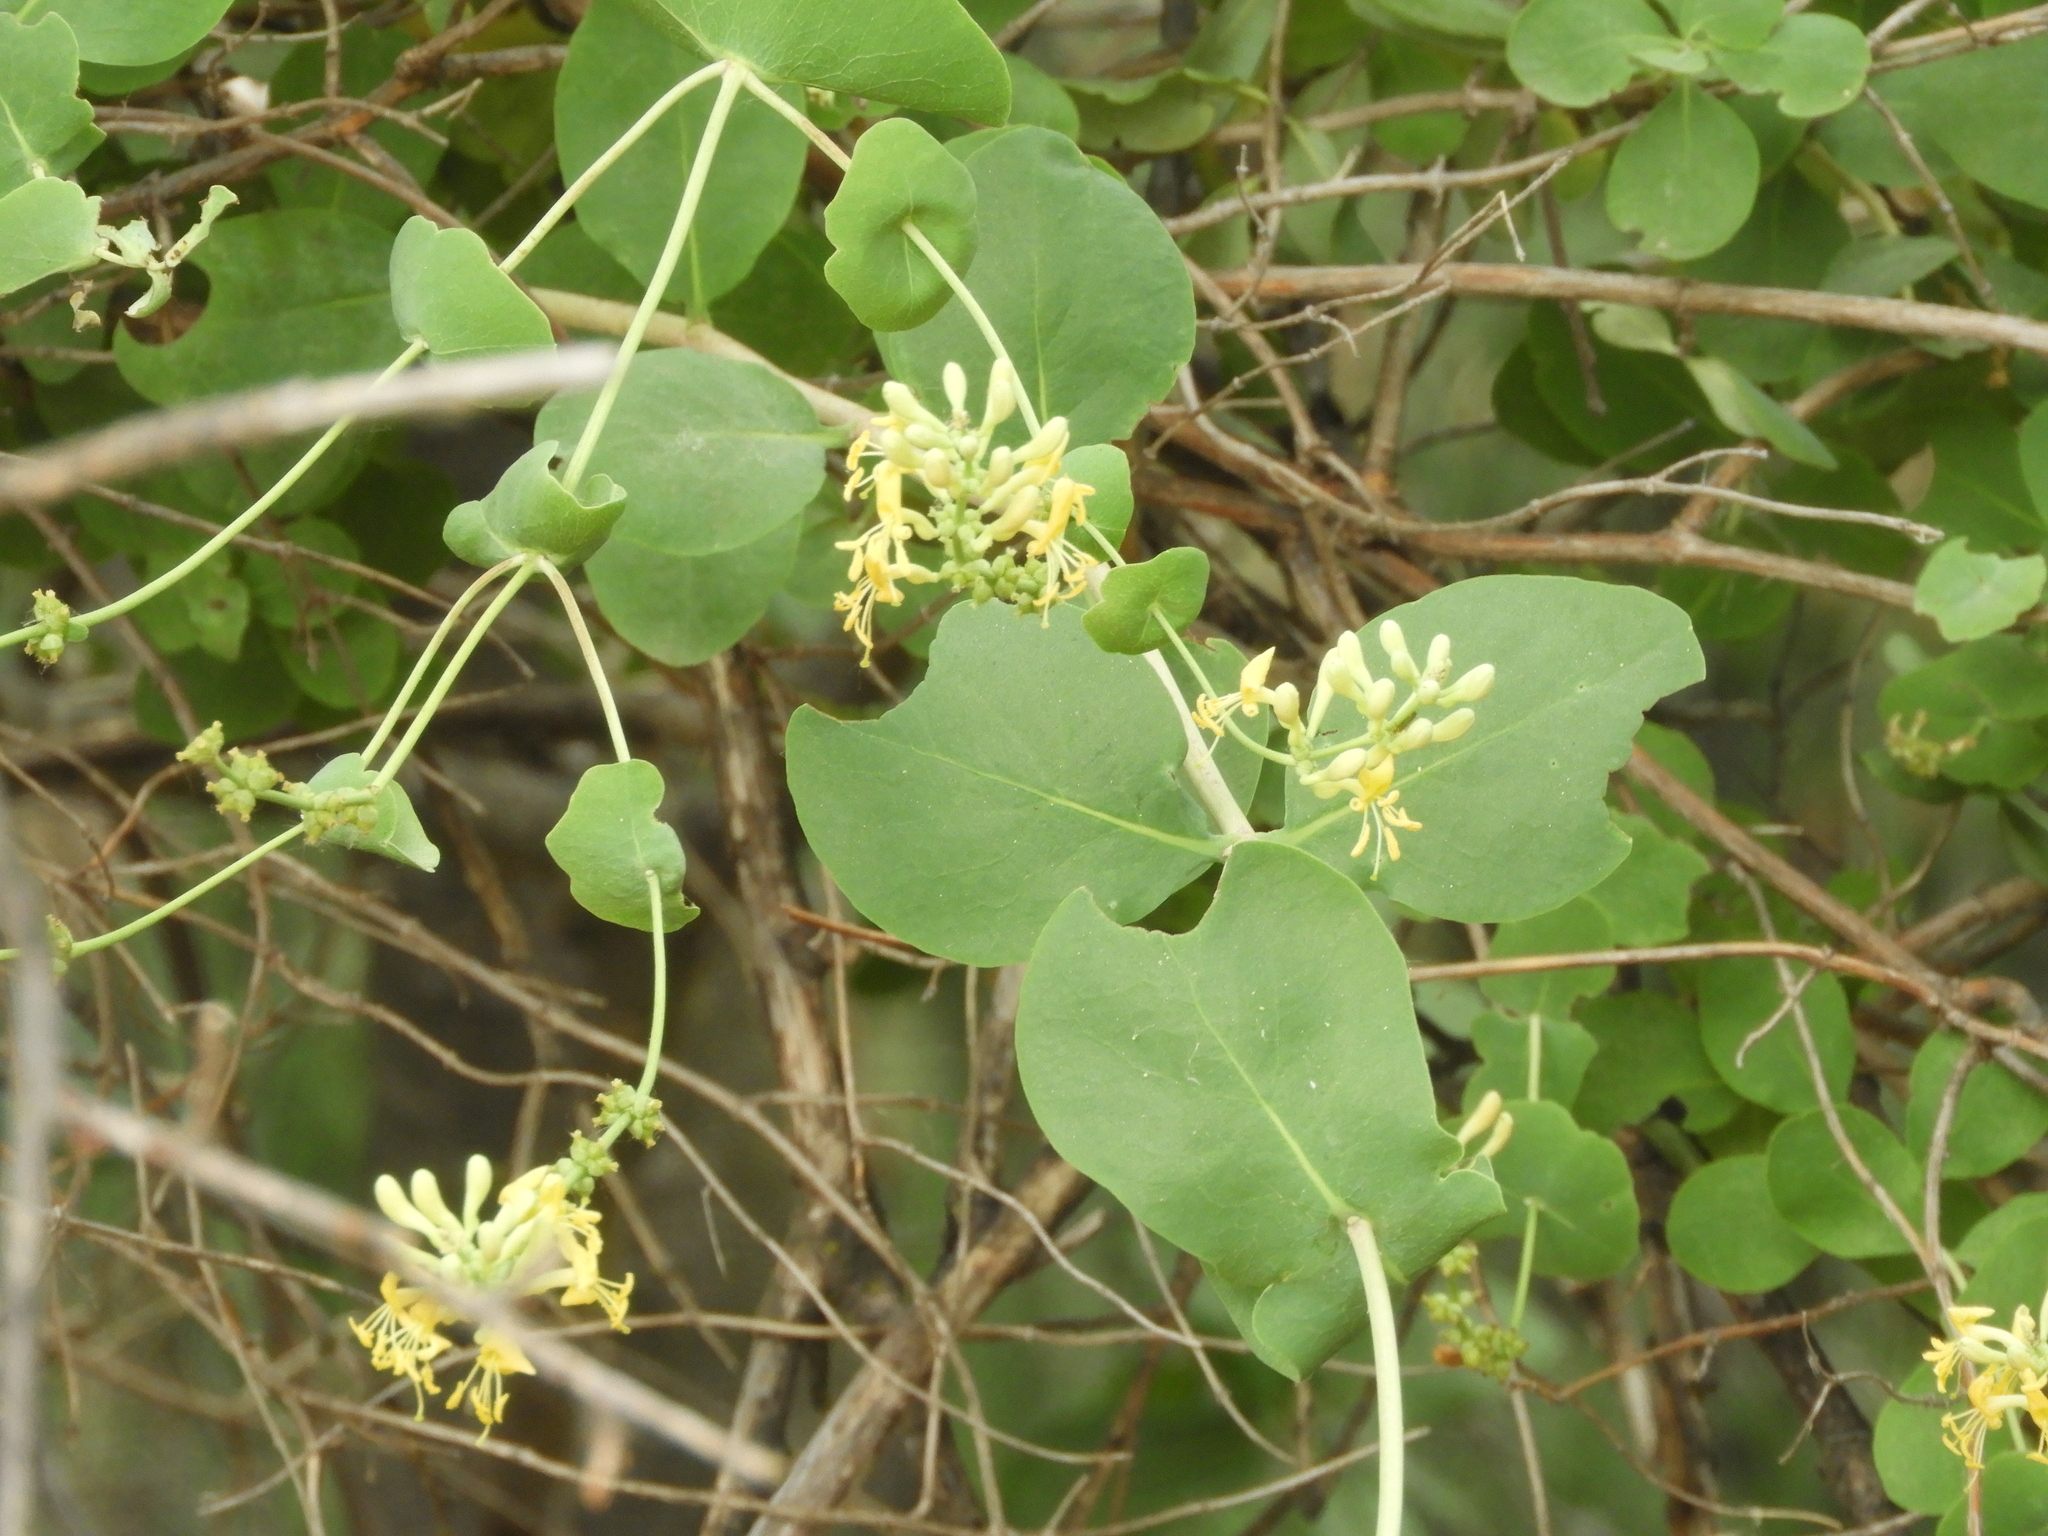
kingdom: Plantae
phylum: Tracheophyta
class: Magnoliopsida
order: Dipsacales
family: Caprifoliaceae
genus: Lonicera
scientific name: Lonicera interrupta
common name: Chaparral honeysuckle
